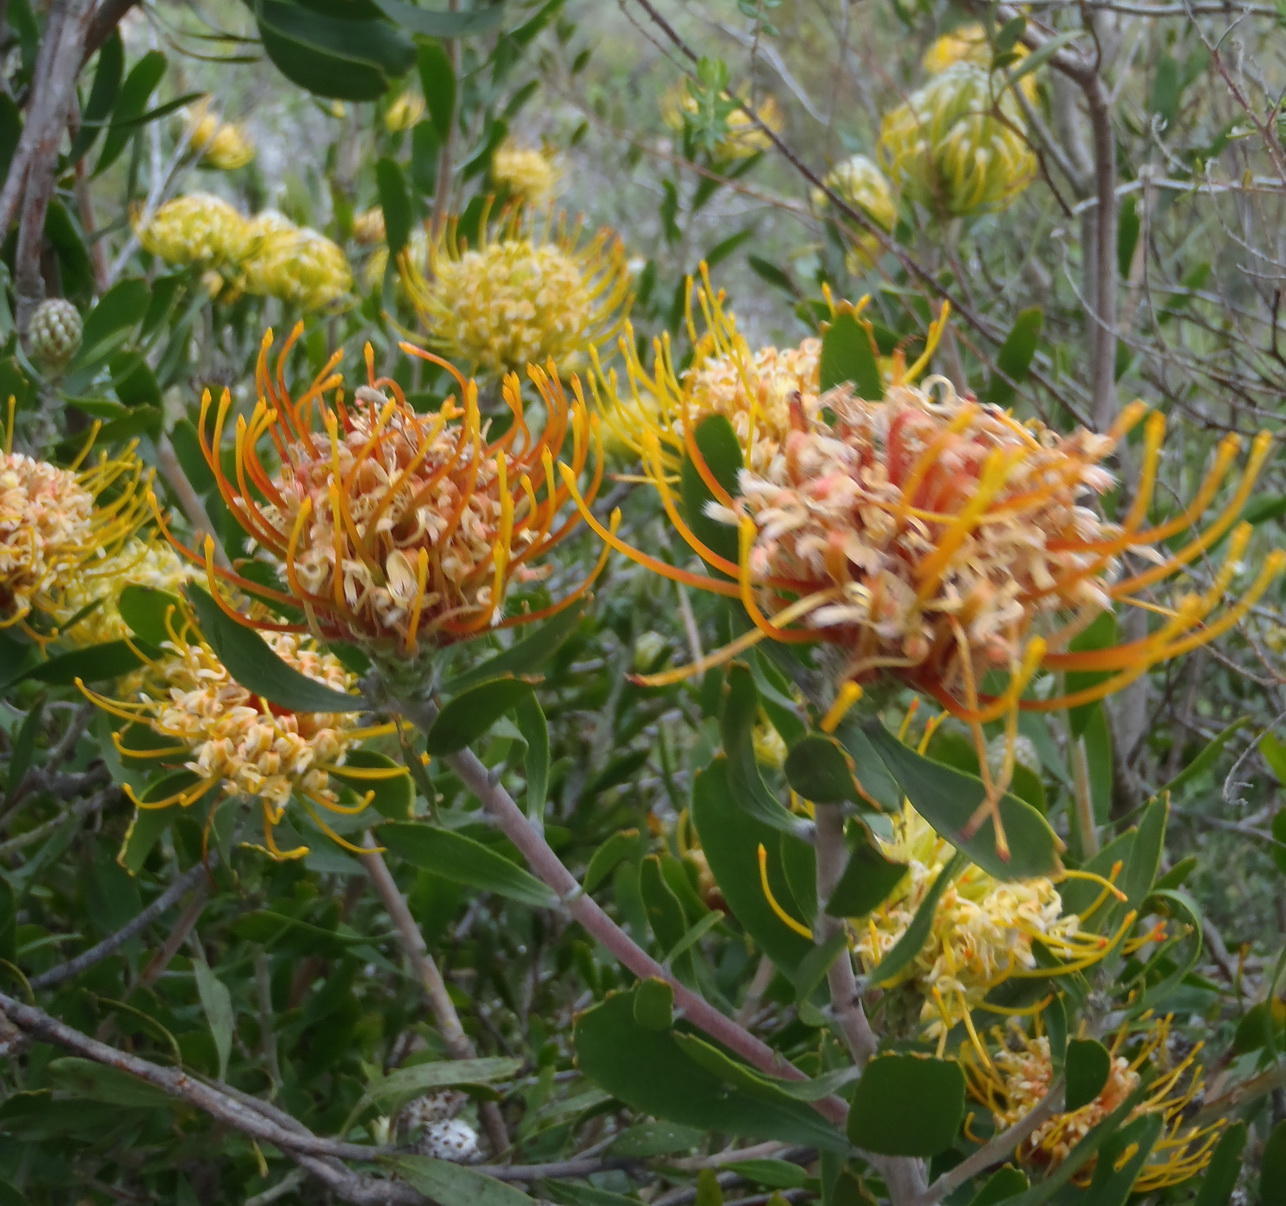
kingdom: Plantae
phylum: Tracheophyta
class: Magnoliopsida
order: Proteales
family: Proteaceae
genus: Leucospermum
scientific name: Leucospermum cuneiforme
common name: Common pincushion
